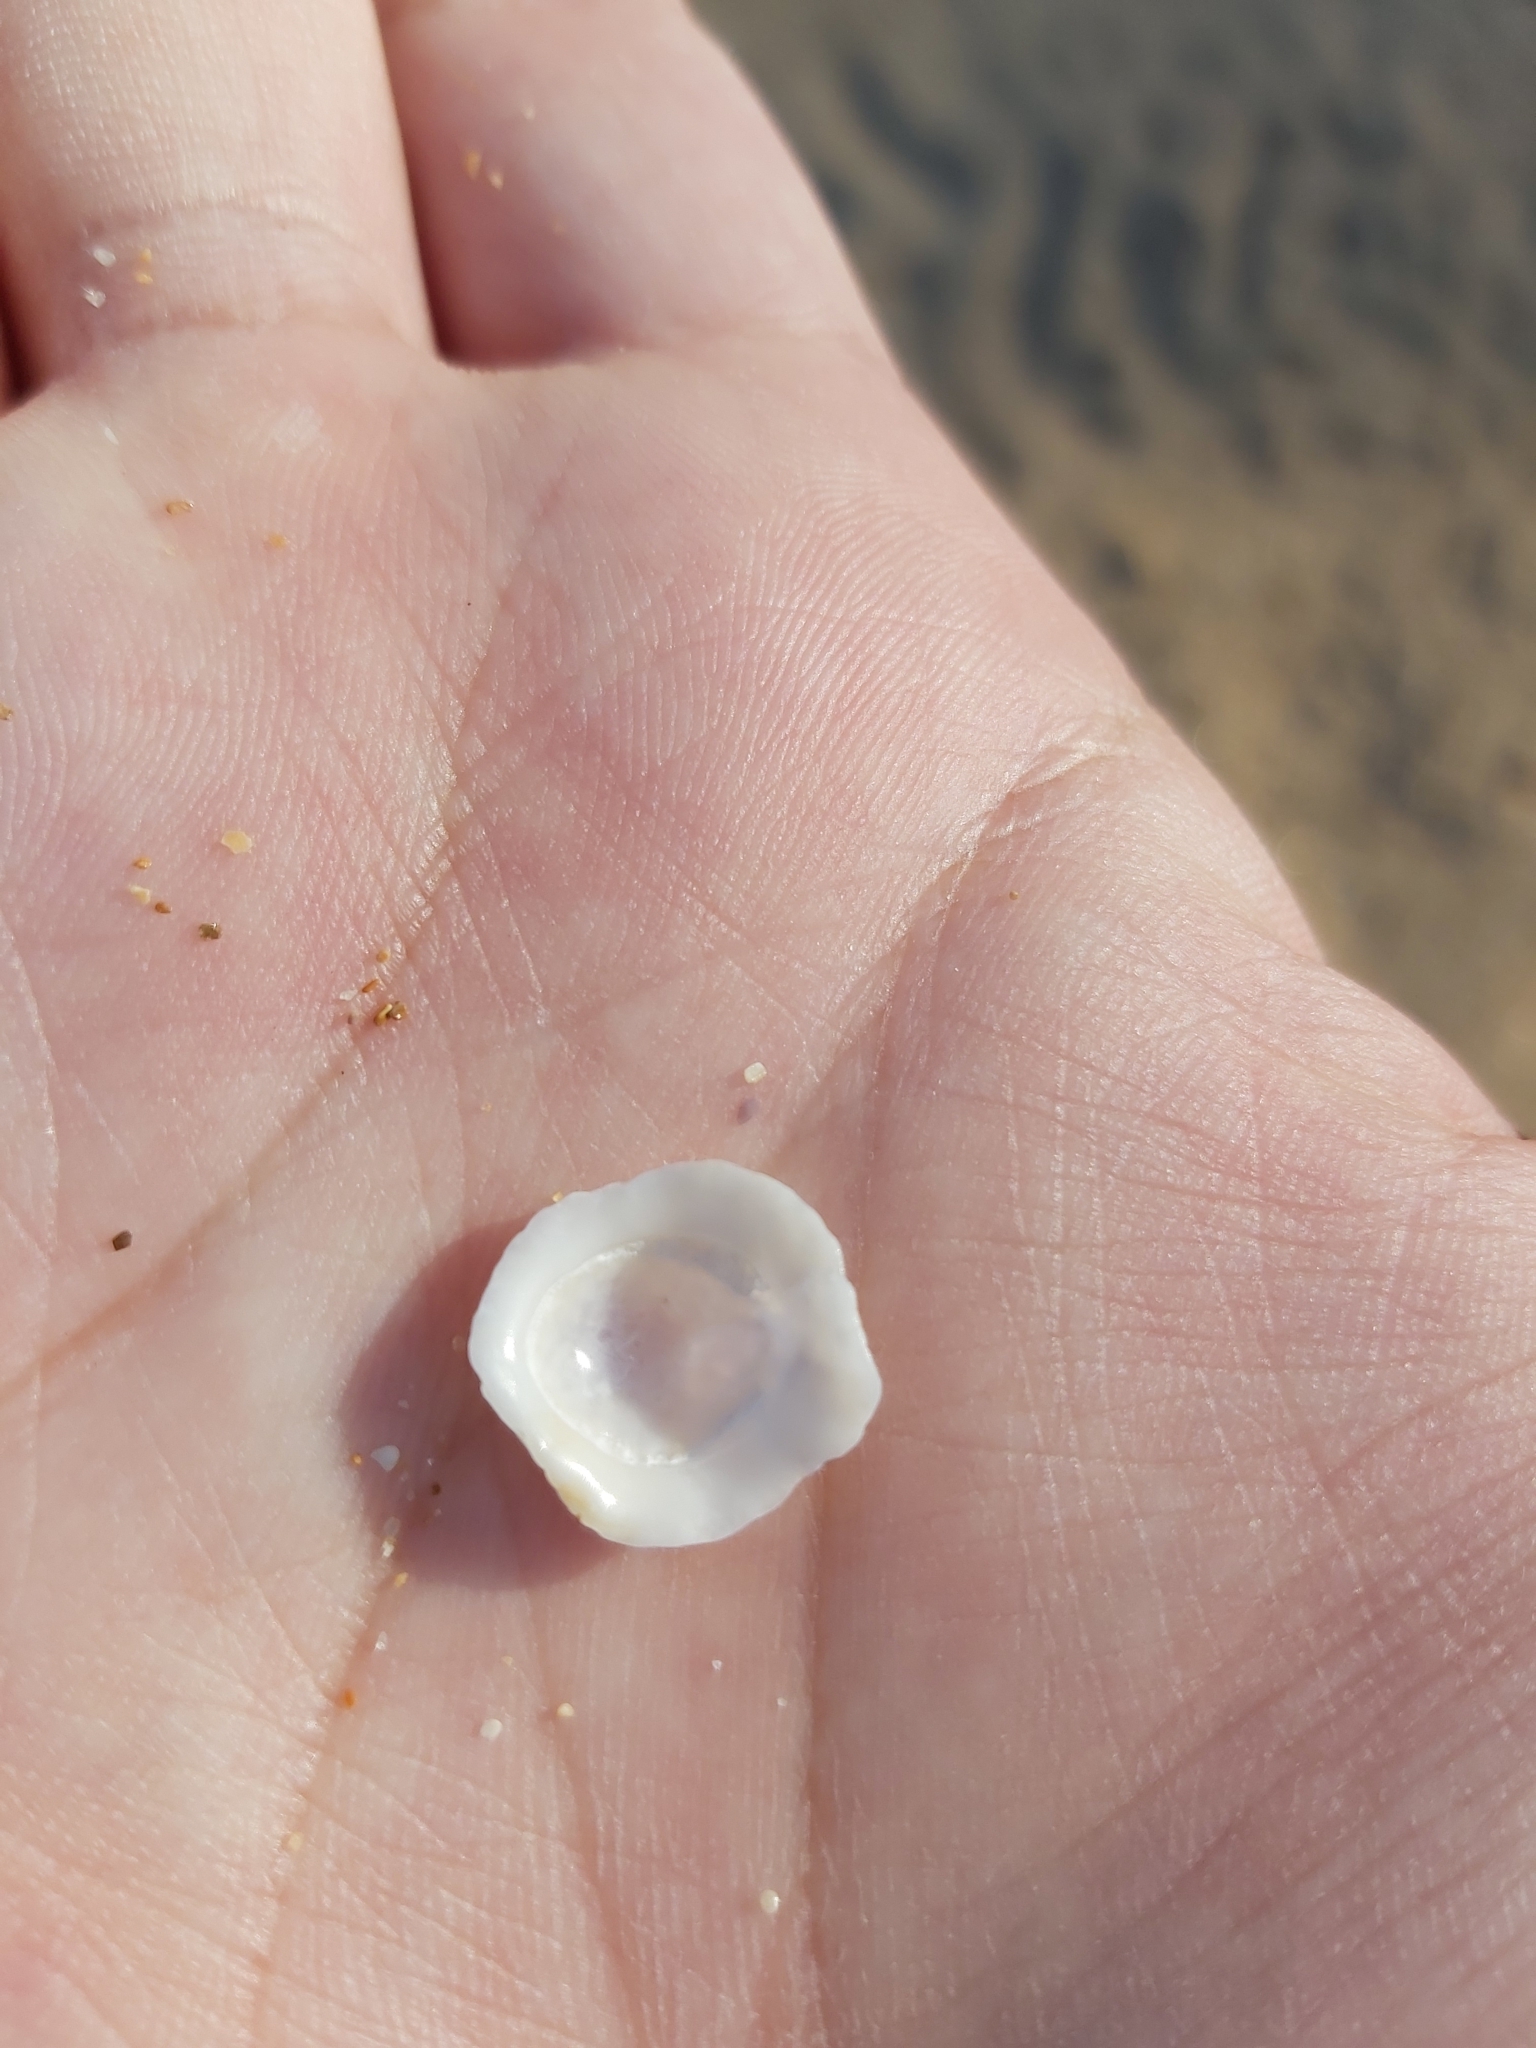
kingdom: Animalia
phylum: Mollusca
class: Gastropoda
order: Ellobiida
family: Trimusculidae
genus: Trimusculus
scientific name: Trimusculus conicus
